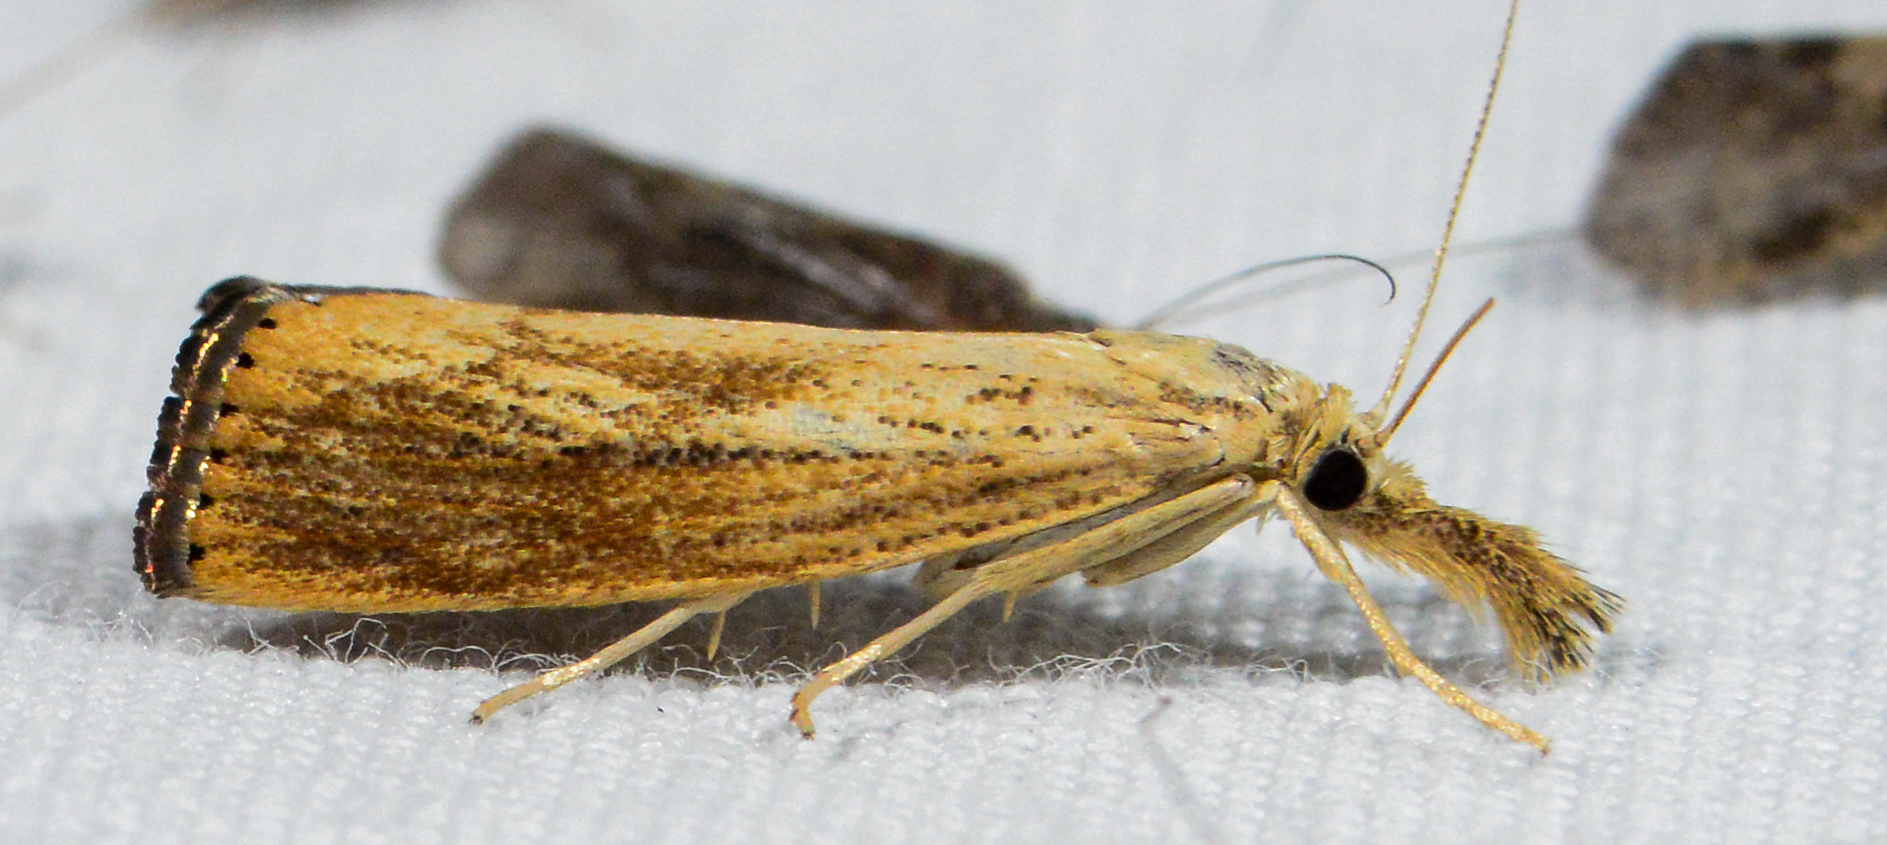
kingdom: Animalia
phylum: Arthropoda
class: Insecta
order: Lepidoptera
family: Crambidae
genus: Agriphila
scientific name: Agriphila vulgivagellus
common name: Vagabond crambus moth
